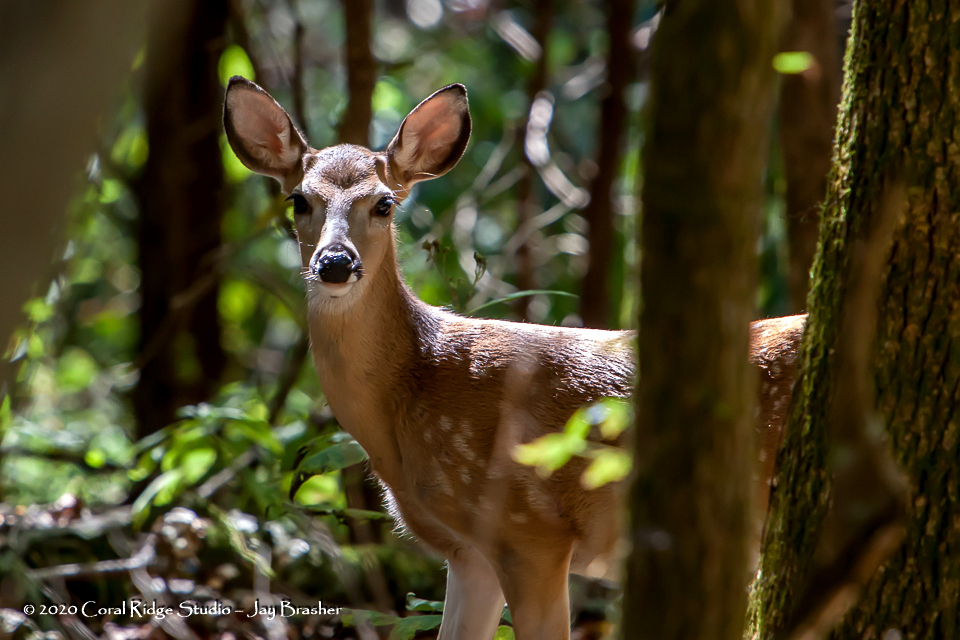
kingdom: Animalia
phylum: Chordata
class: Mammalia
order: Artiodactyla
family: Cervidae
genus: Odocoileus
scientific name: Odocoileus virginianus
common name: White-tailed deer
